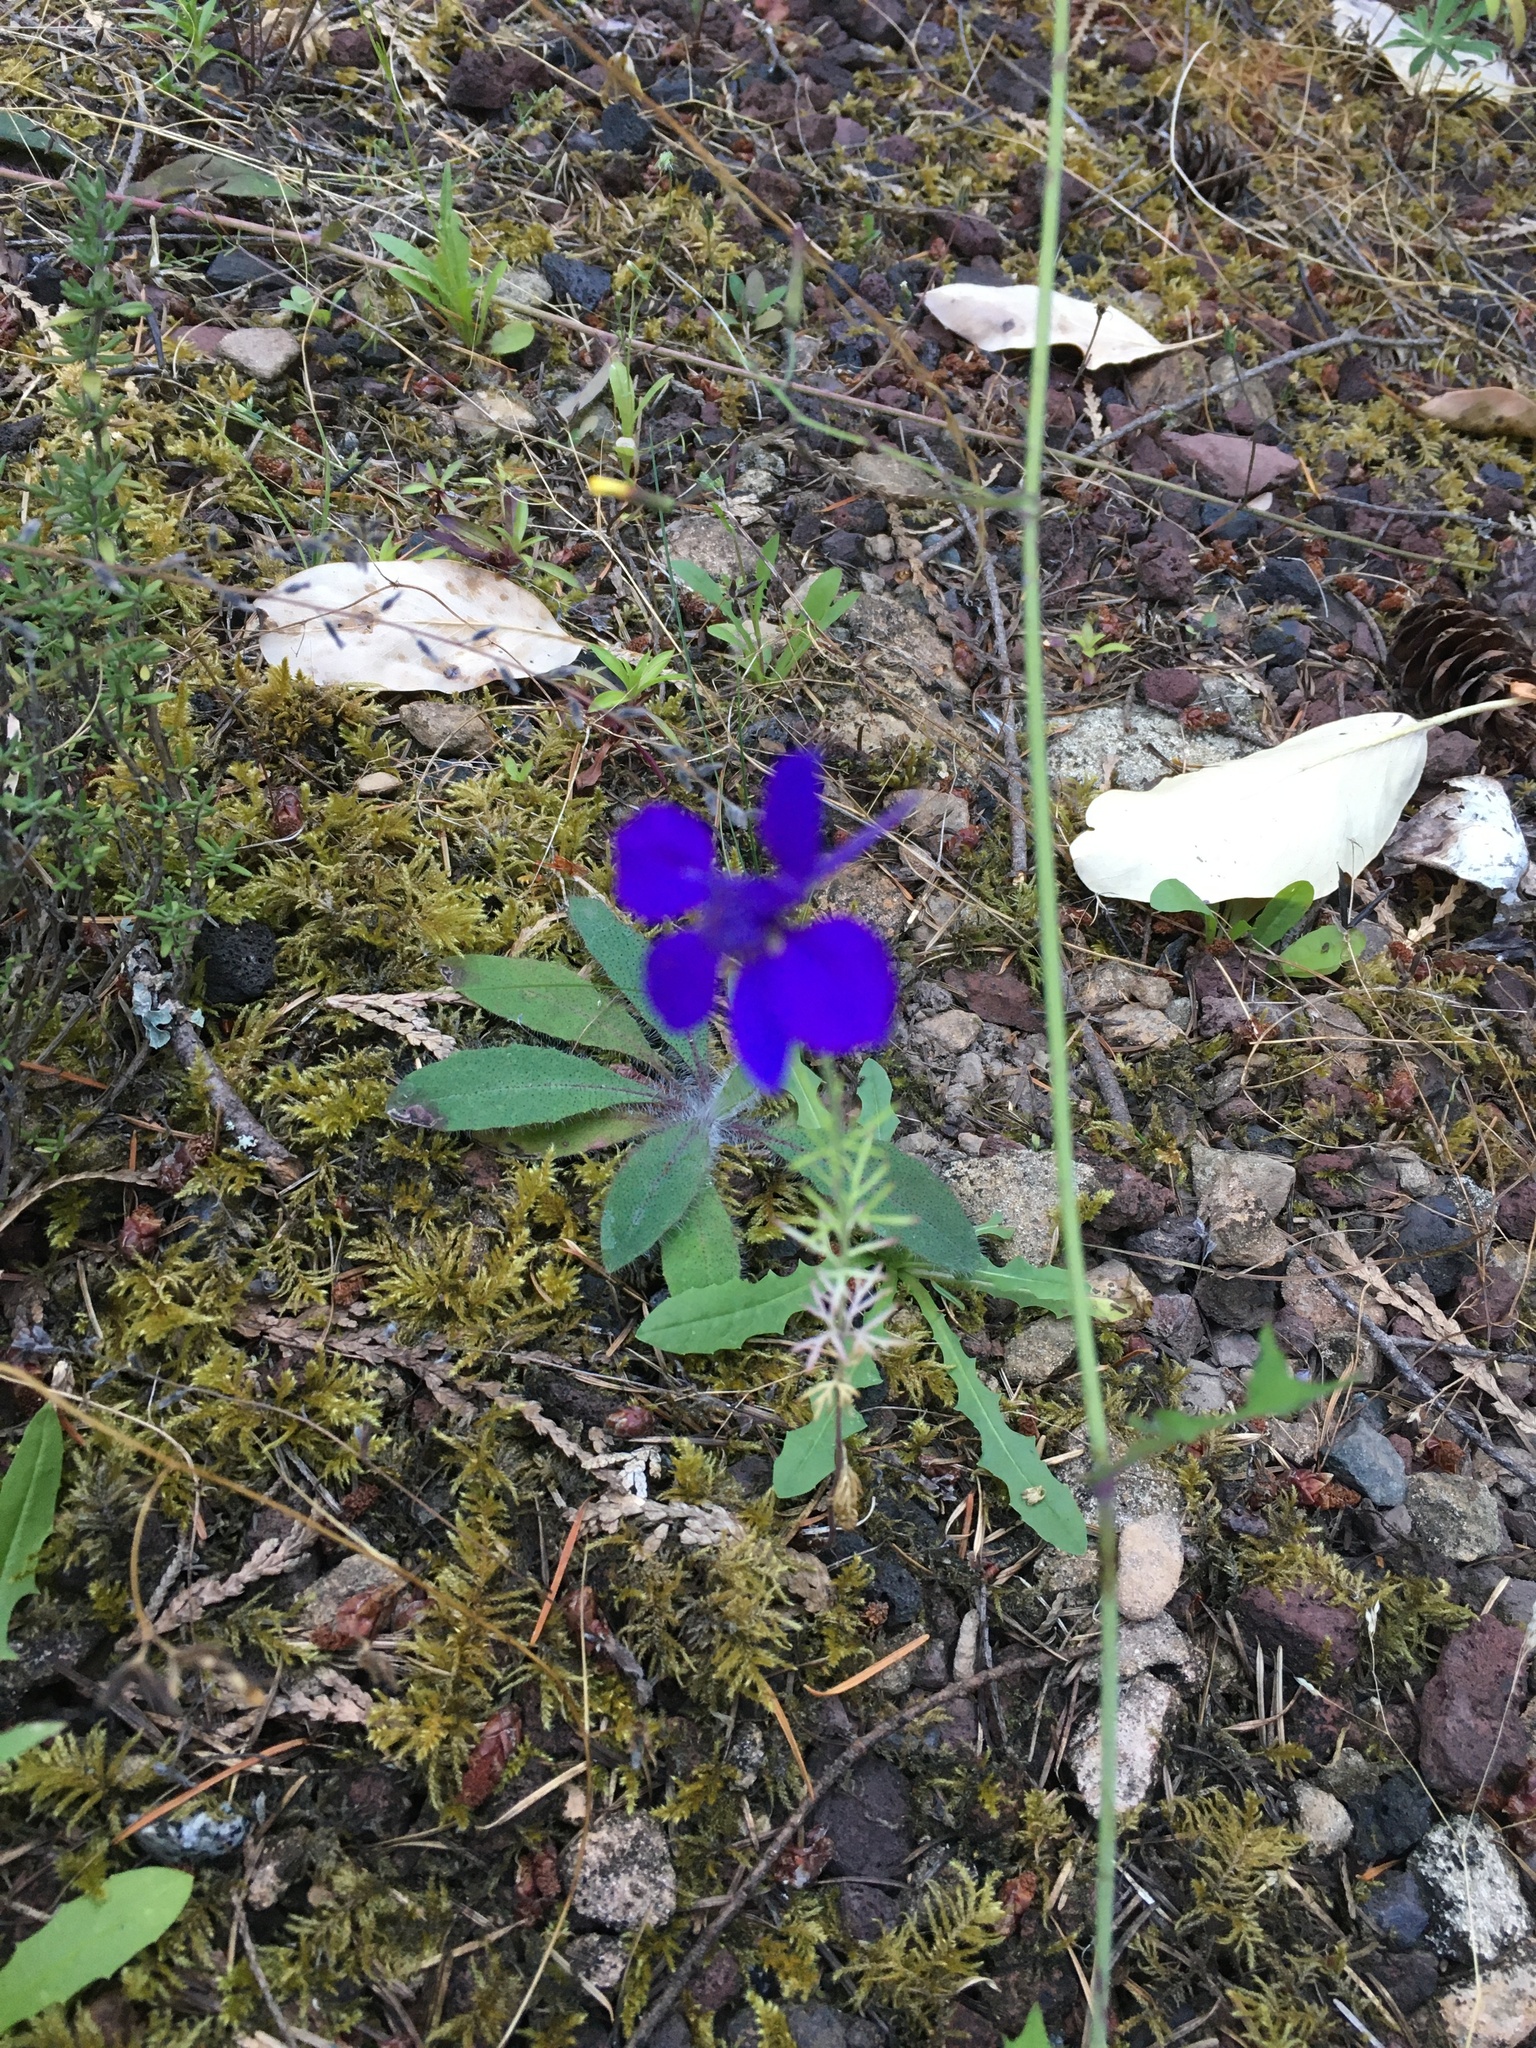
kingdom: Plantae
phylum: Tracheophyta
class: Magnoliopsida
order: Ranunculales
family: Ranunculaceae
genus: Delphinium
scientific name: Delphinium ajacis
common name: Doubtful knight's-spur
